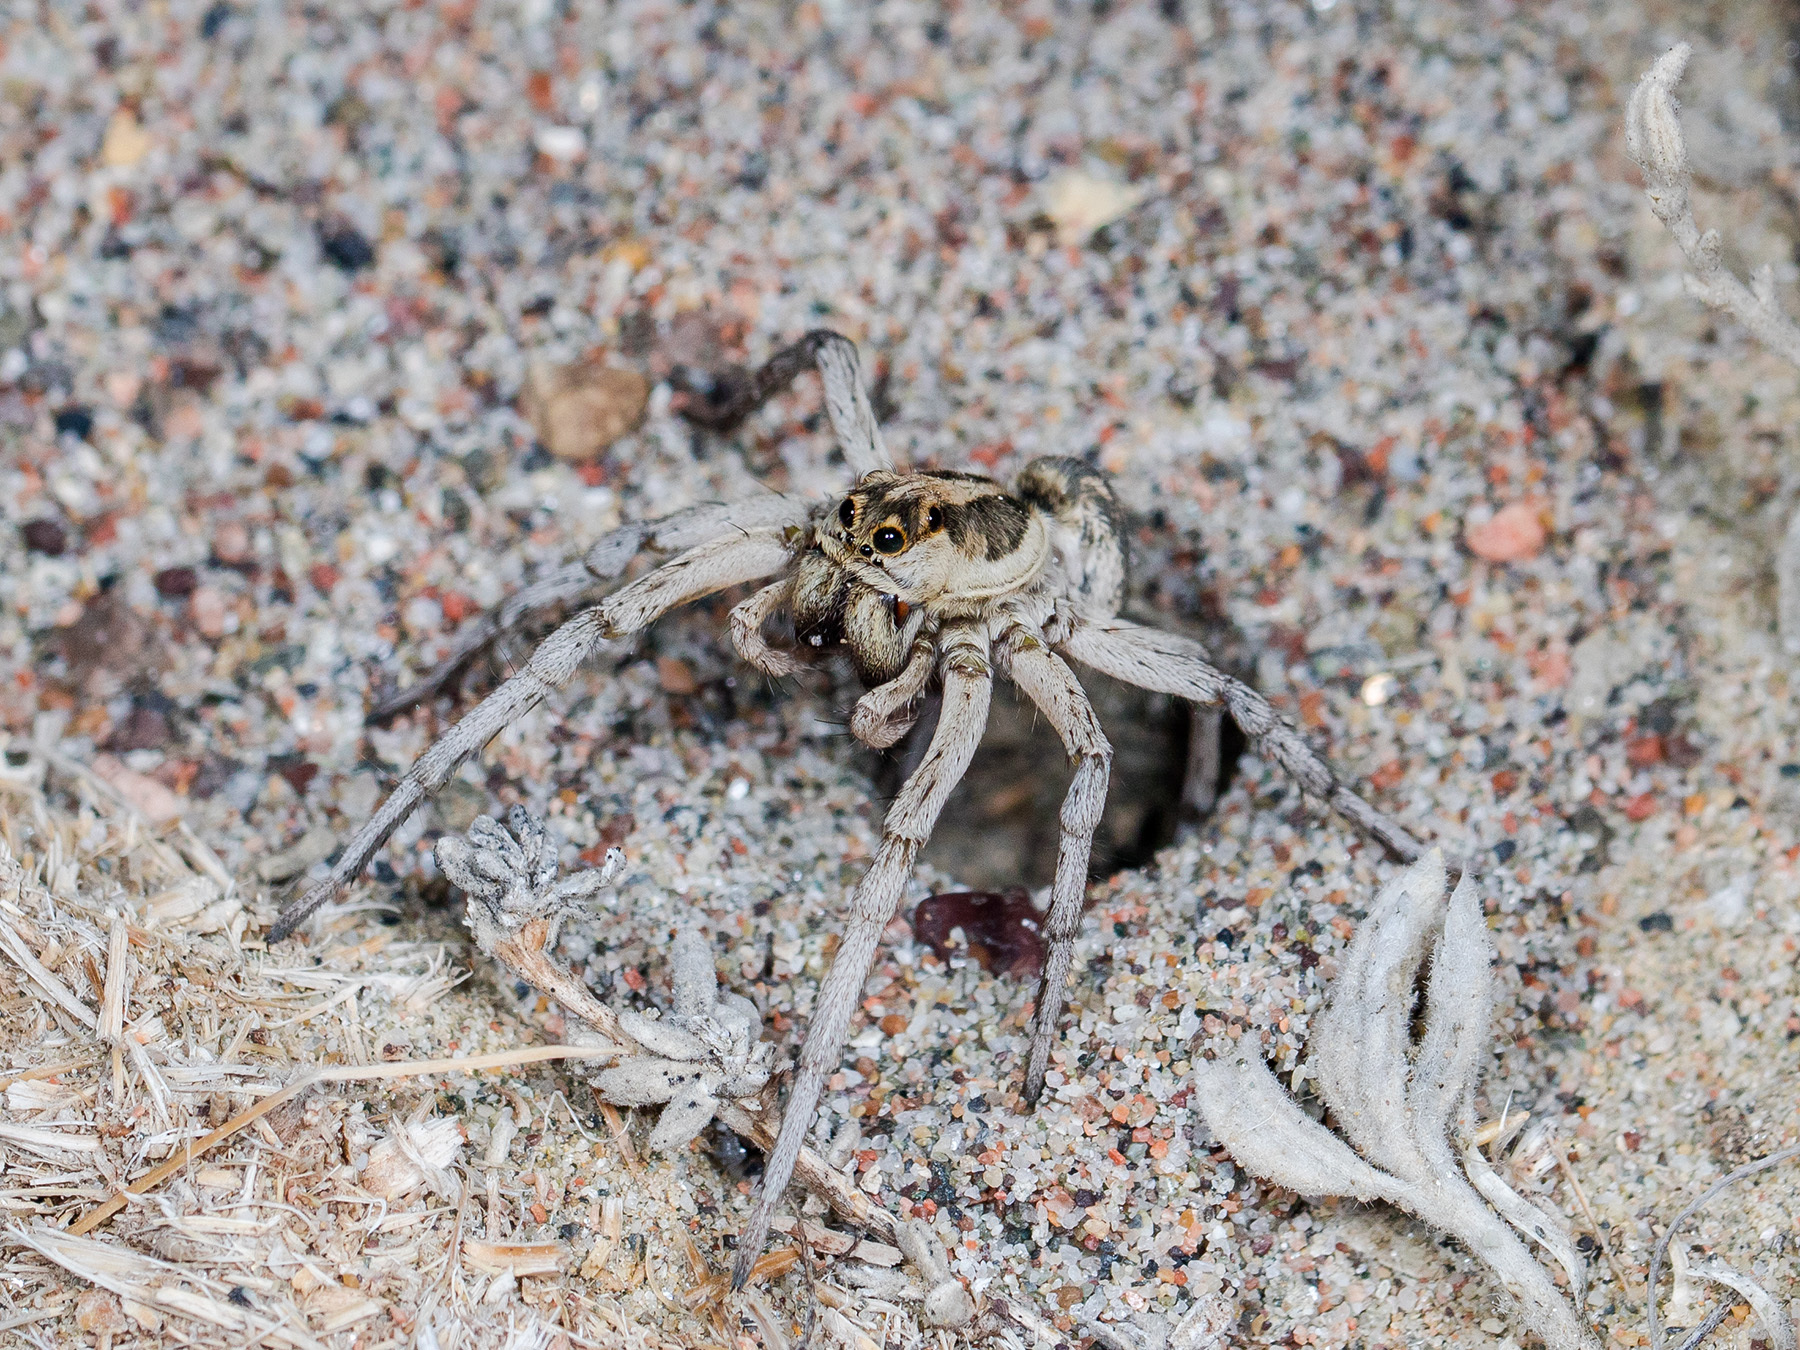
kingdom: Animalia
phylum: Arthropoda
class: Arachnida
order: Araneae
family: Lycosidae
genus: Karakumosa
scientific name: Karakumosa alticeps
